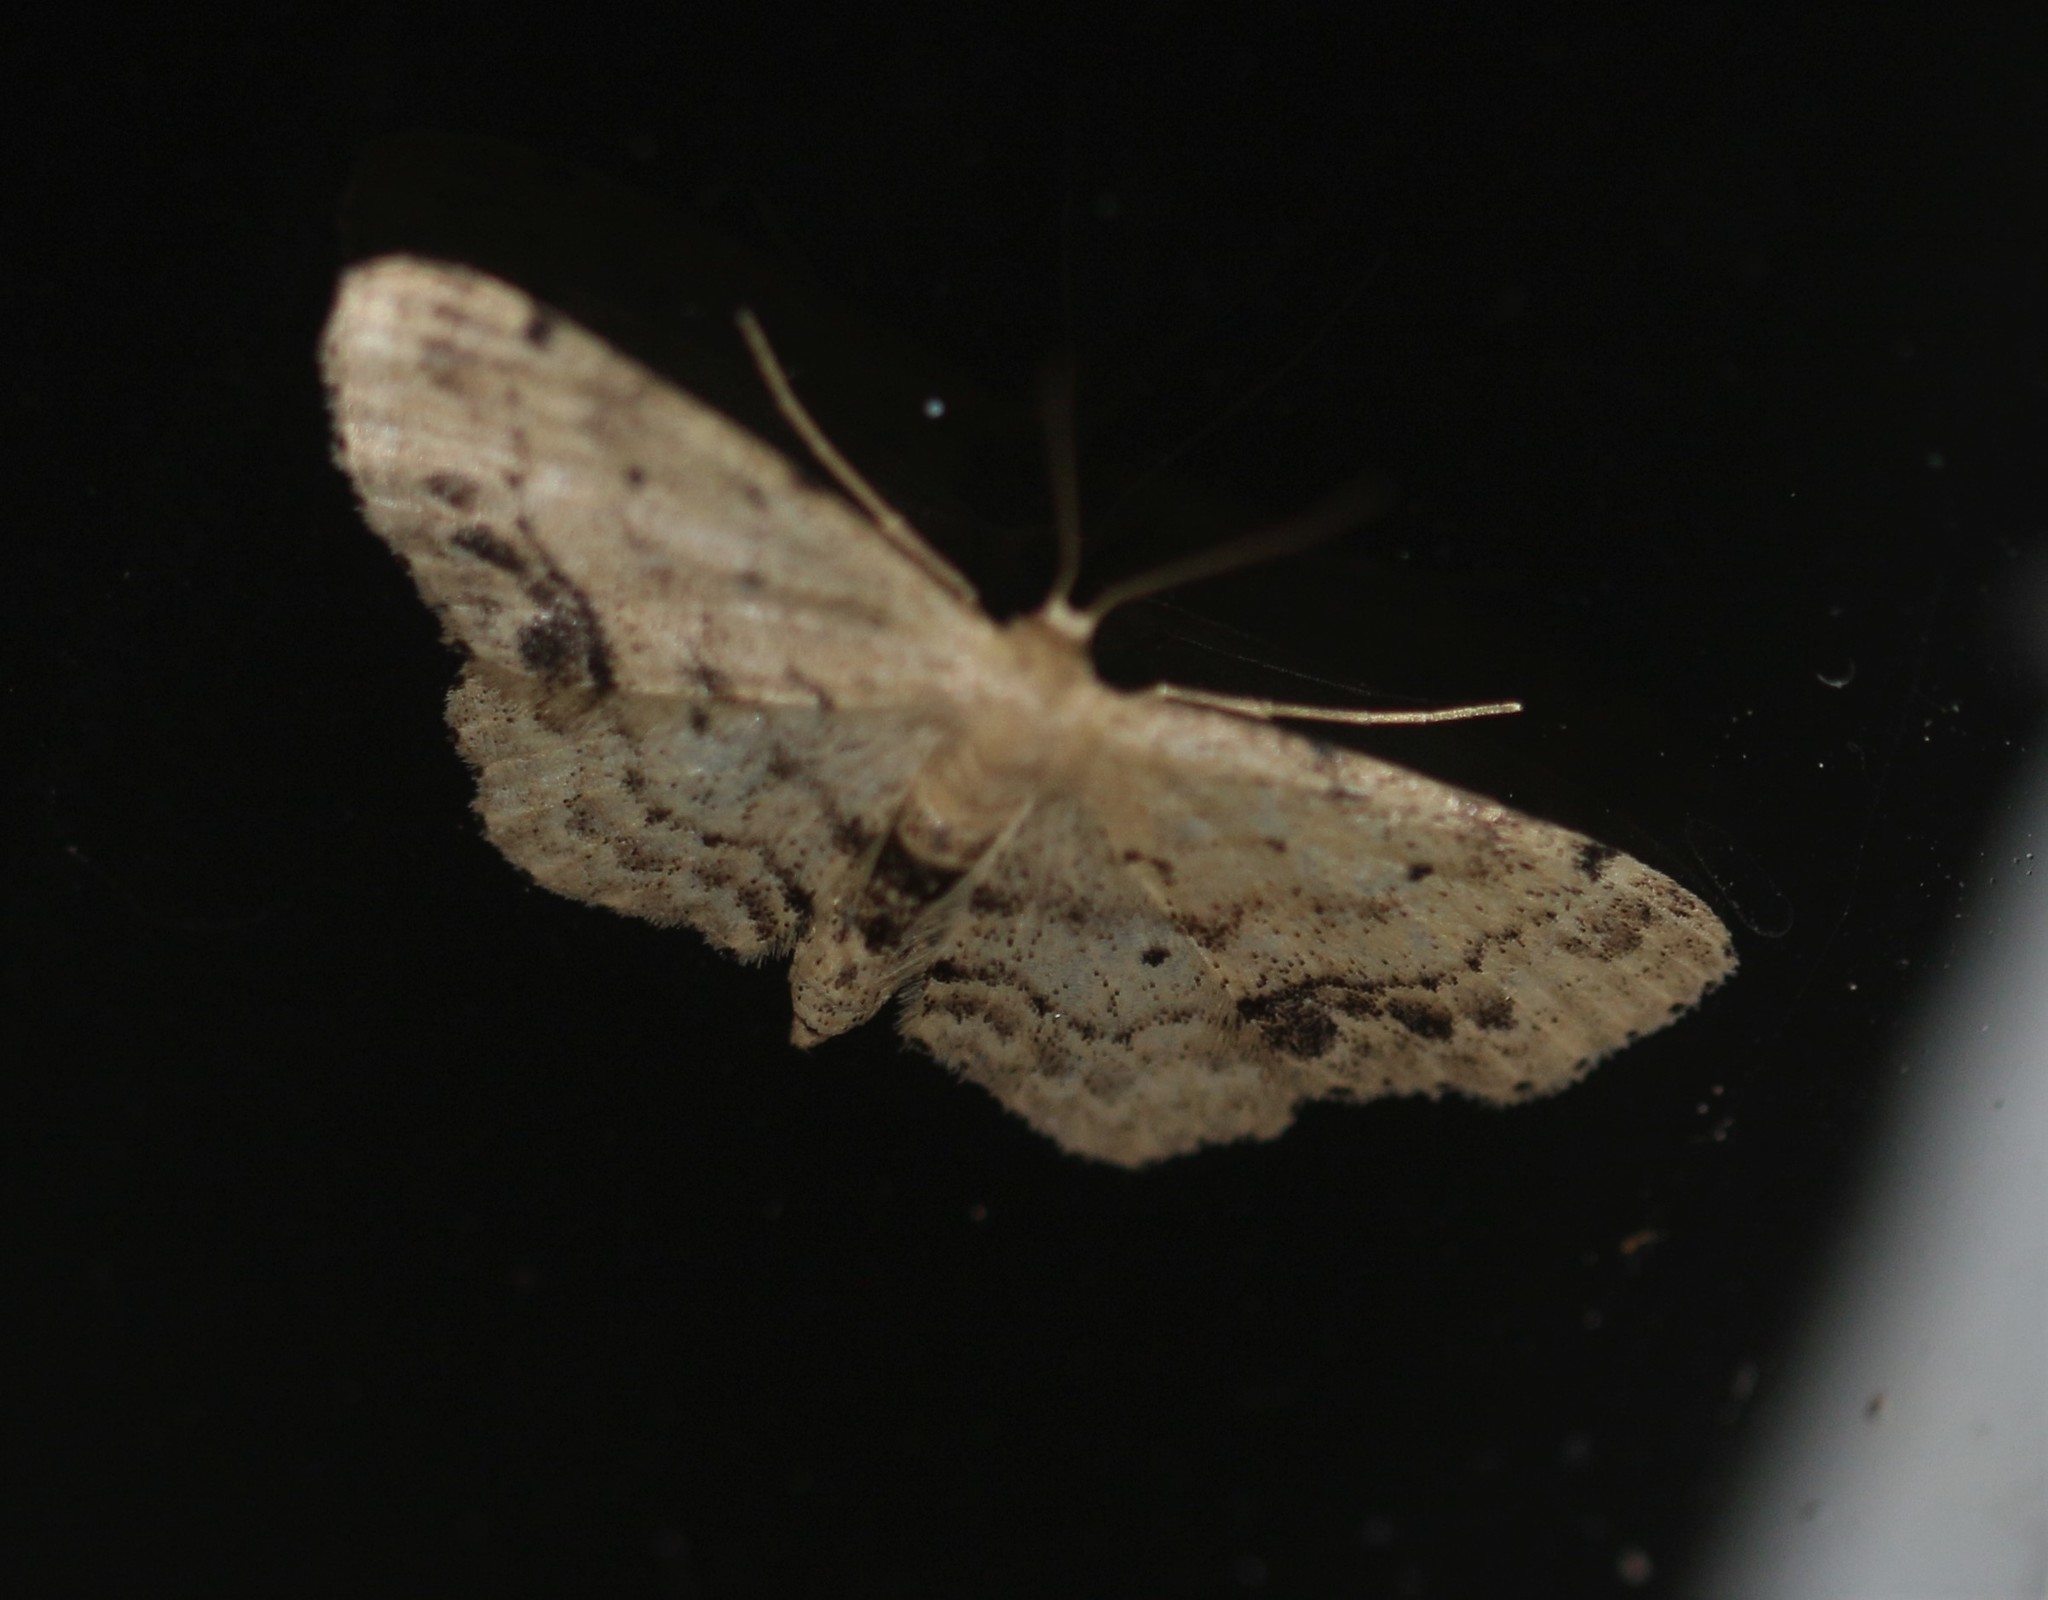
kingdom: Animalia
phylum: Arthropoda
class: Insecta
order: Lepidoptera
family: Geometridae
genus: Idaea
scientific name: Idaea dimidiata
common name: Single-dotted wave
